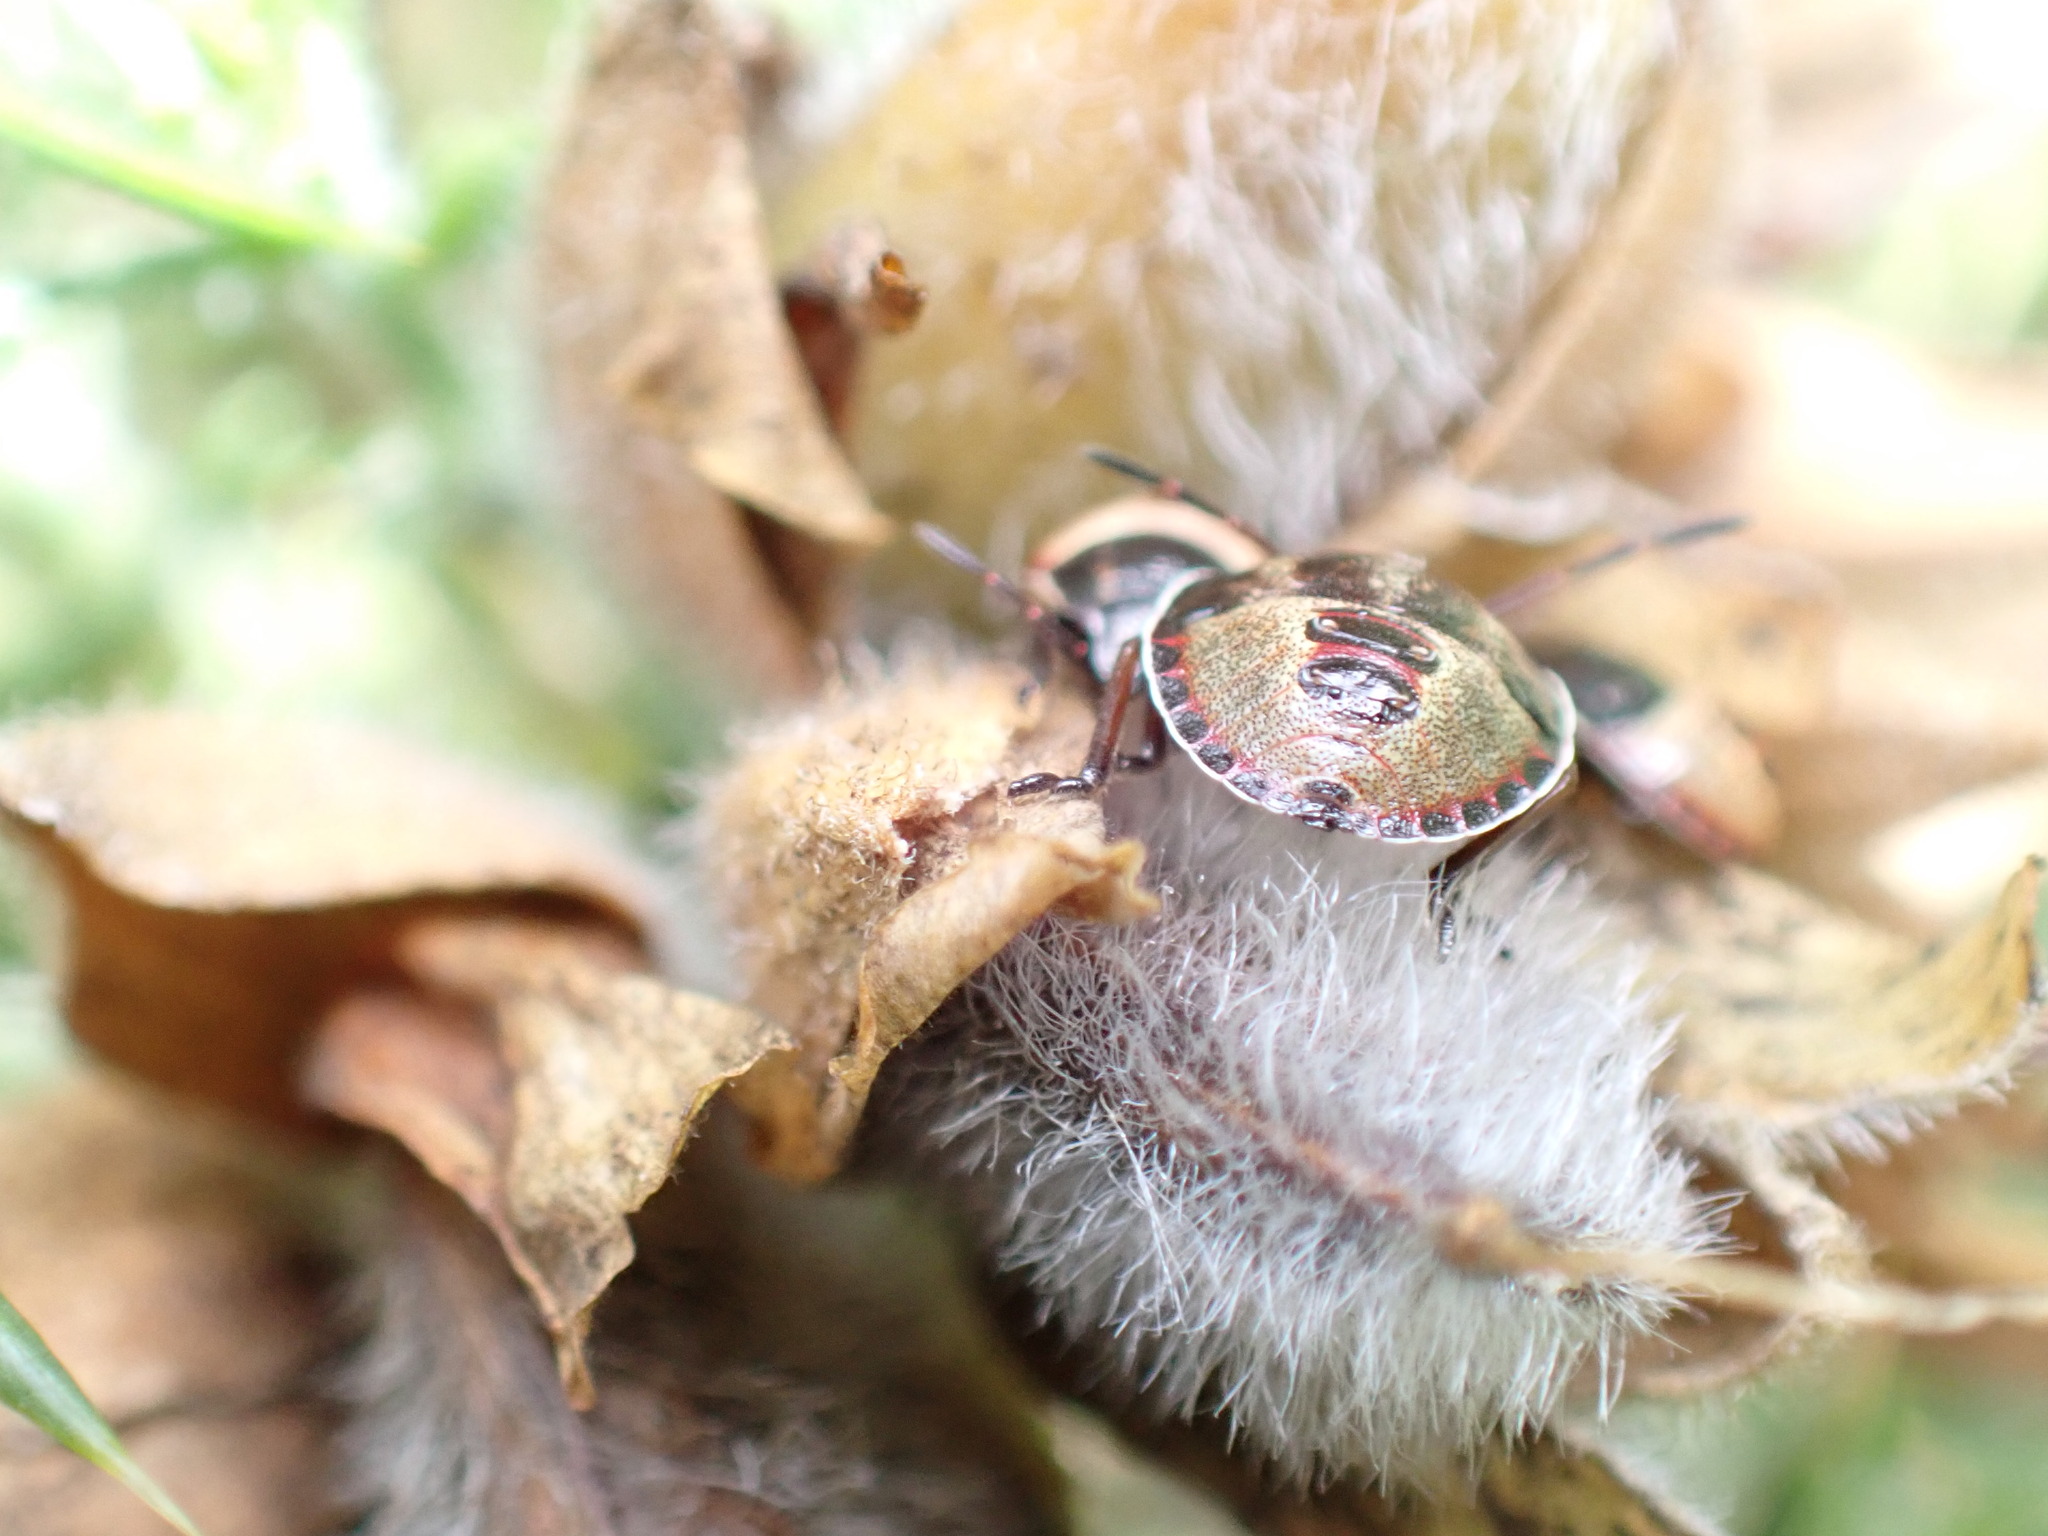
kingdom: Animalia
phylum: Arthropoda
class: Insecta
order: Hemiptera
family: Pentatomidae
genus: Piezodorus
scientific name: Piezodorus lituratus
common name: Stink bug
